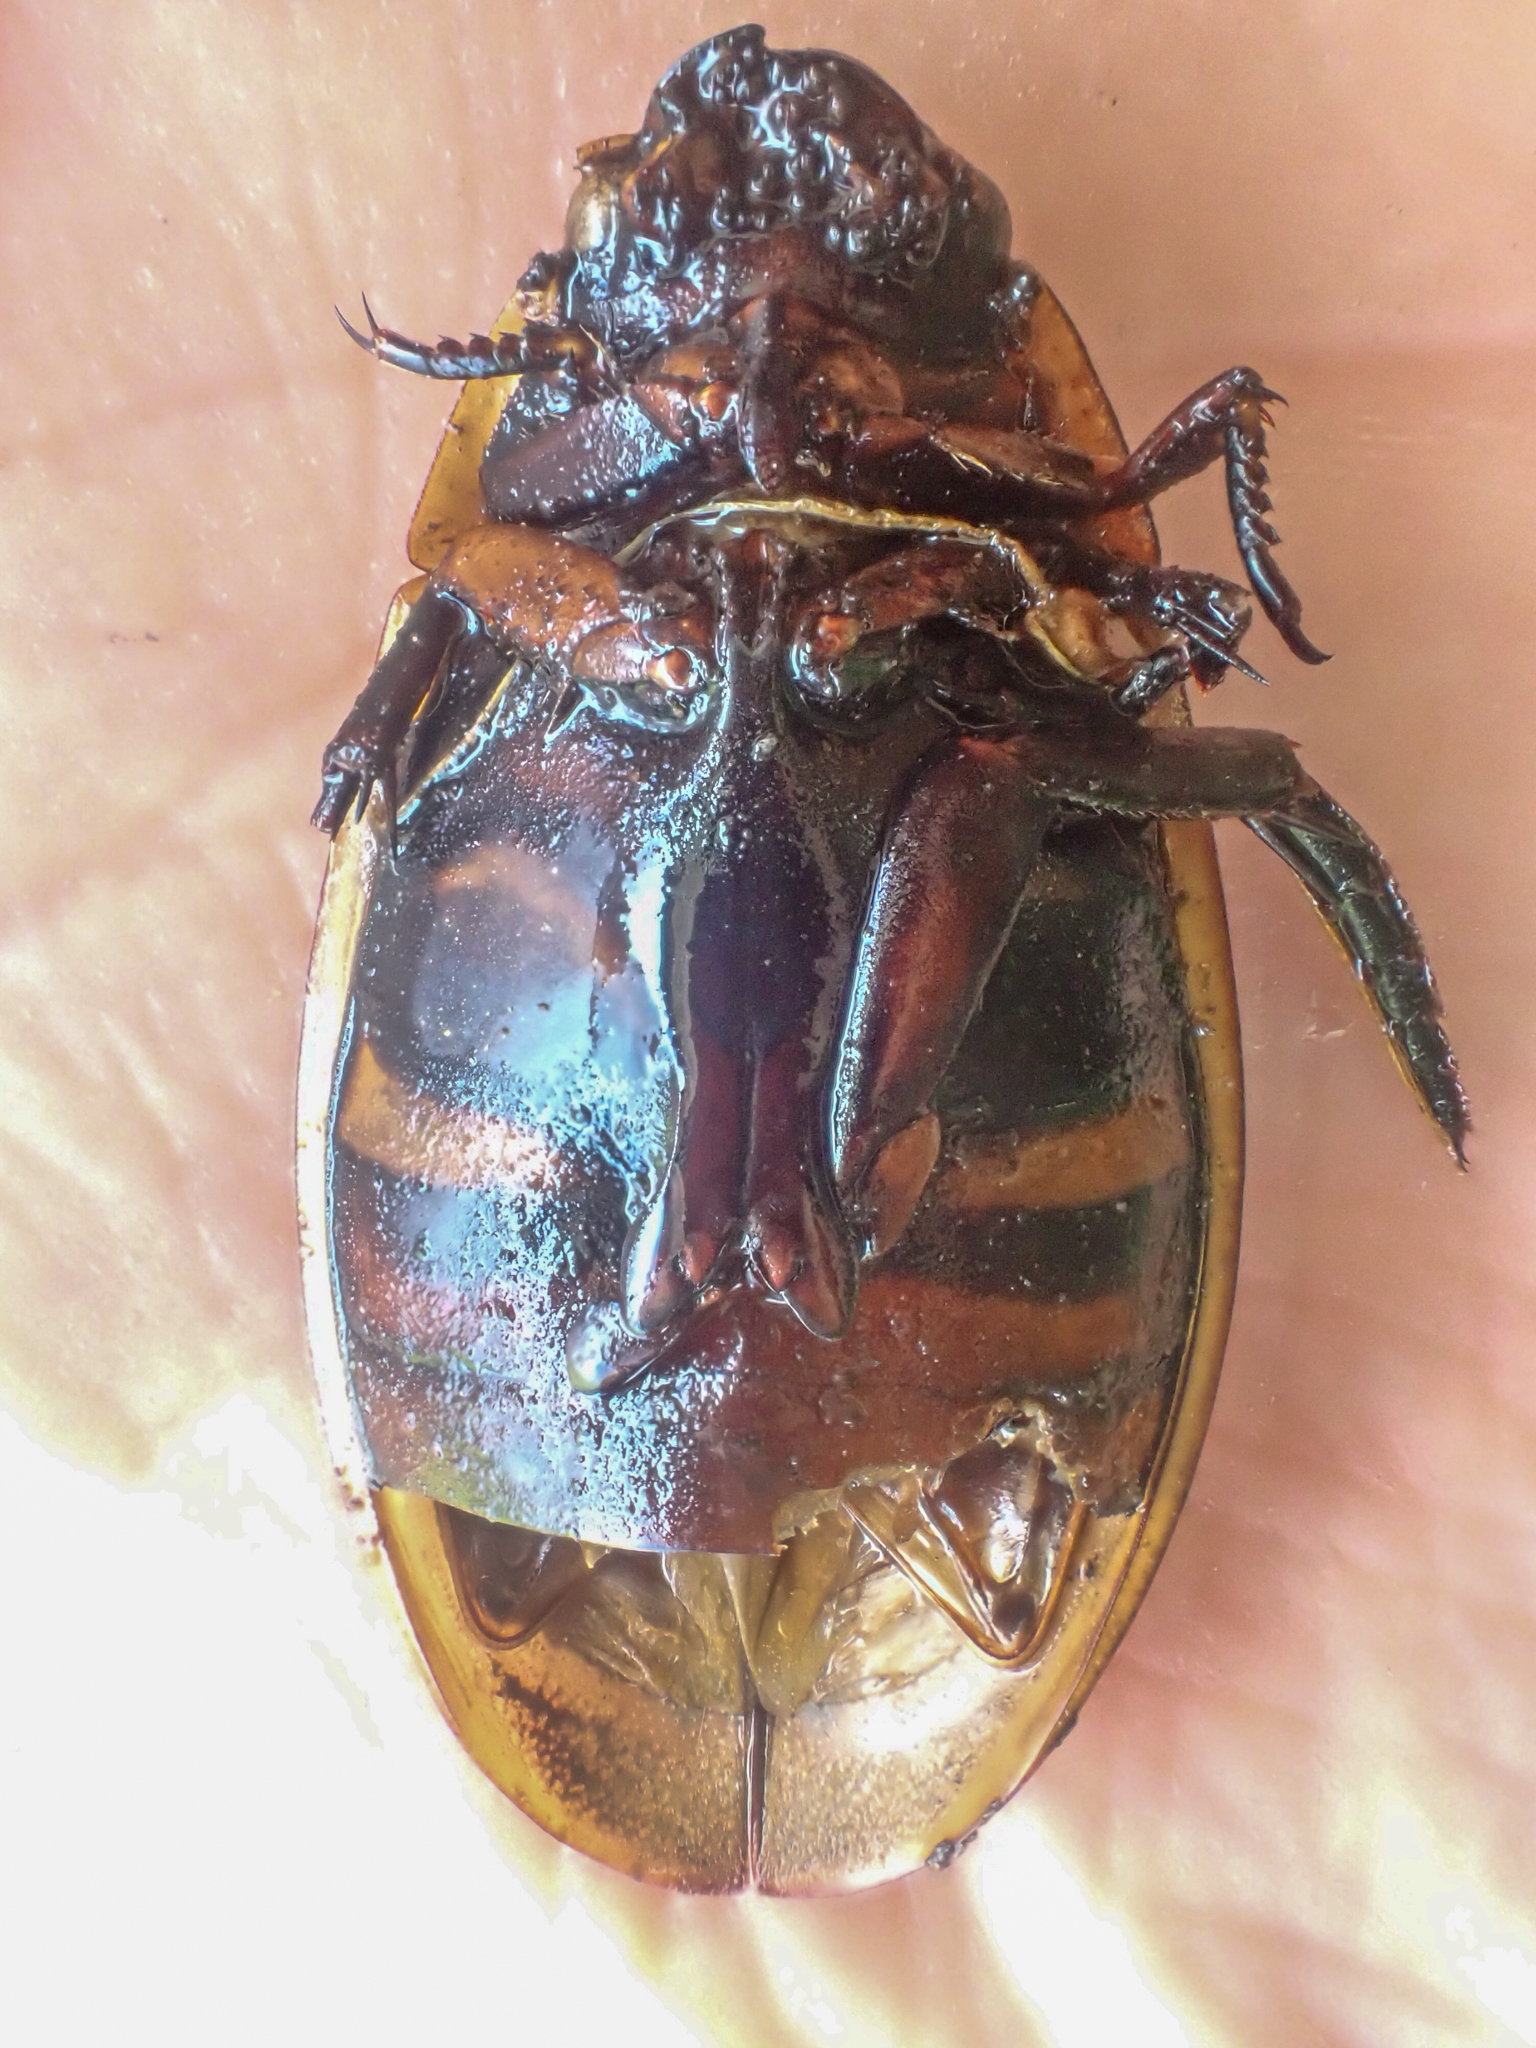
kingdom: Animalia
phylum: Arthropoda
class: Insecta
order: Coleoptera
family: Dytiscidae
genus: Dytiscus
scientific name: Dytiscus harrisii
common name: Harris's diving beetle
